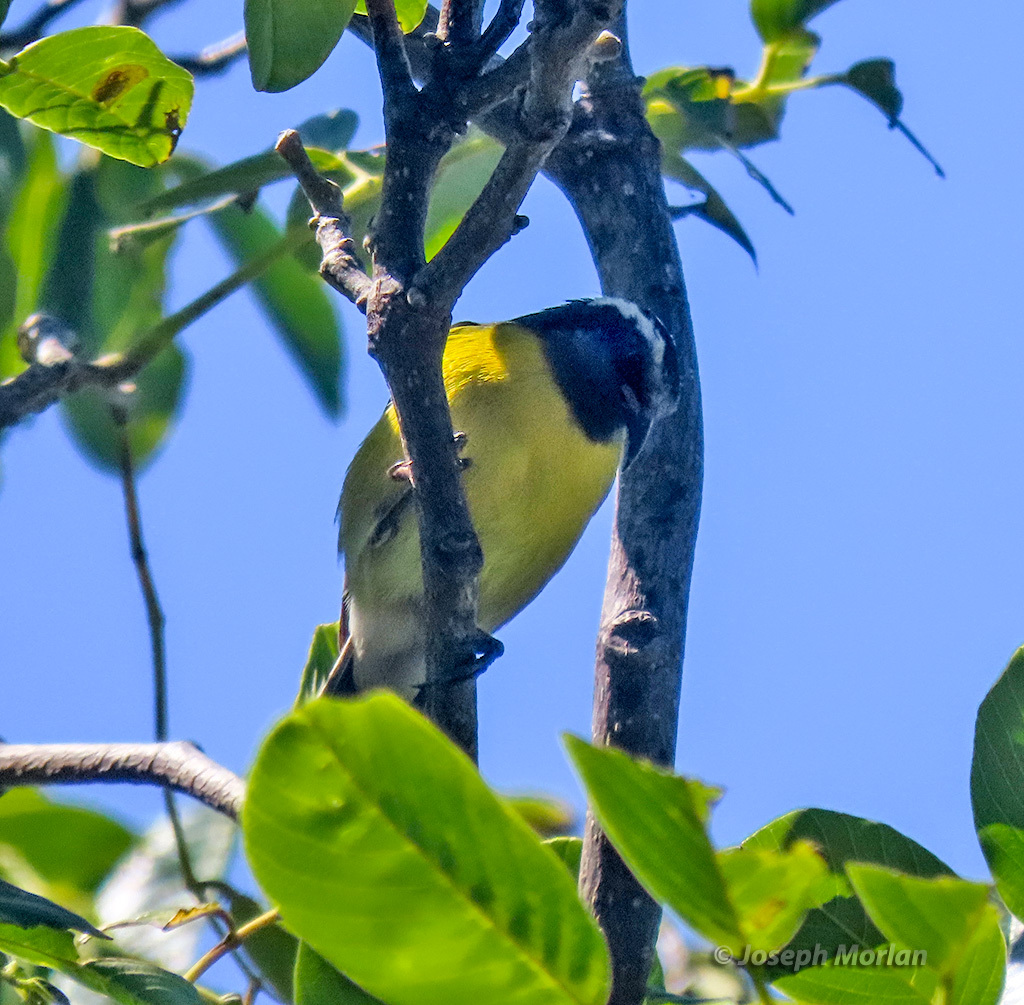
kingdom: Animalia
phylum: Chordata
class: Aves
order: Passeriformes
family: Thraupidae
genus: Coereba
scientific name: Coereba flaveola
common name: Bananaquit
